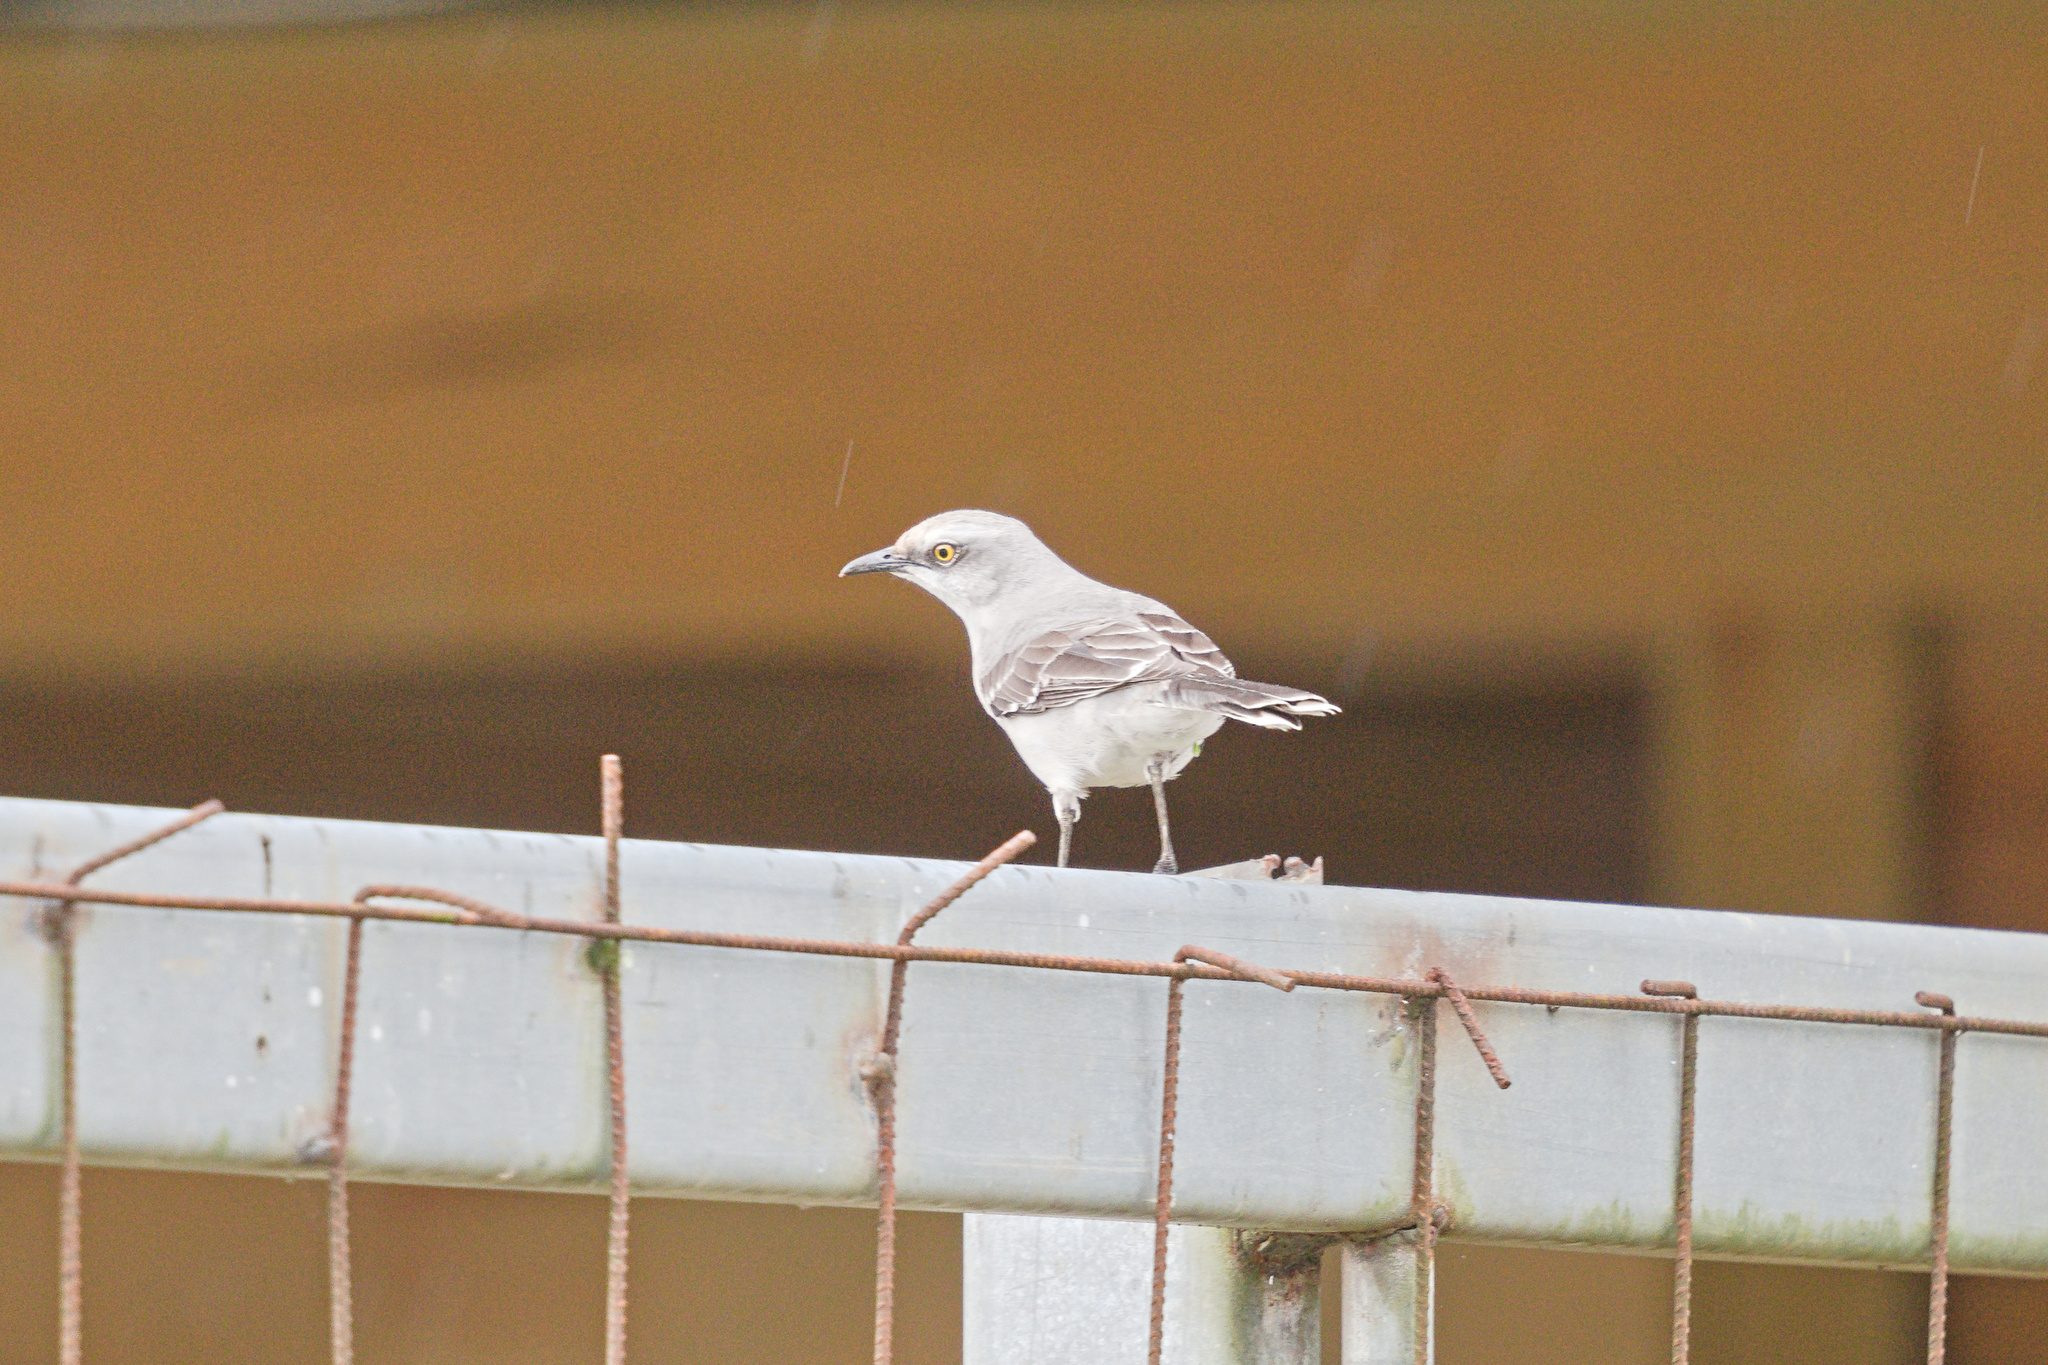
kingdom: Animalia
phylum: Chordata
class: Aves
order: Passeriformes
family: Mimidae
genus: Mimus
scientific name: Mimus gilvus
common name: Tropical mockingbird
